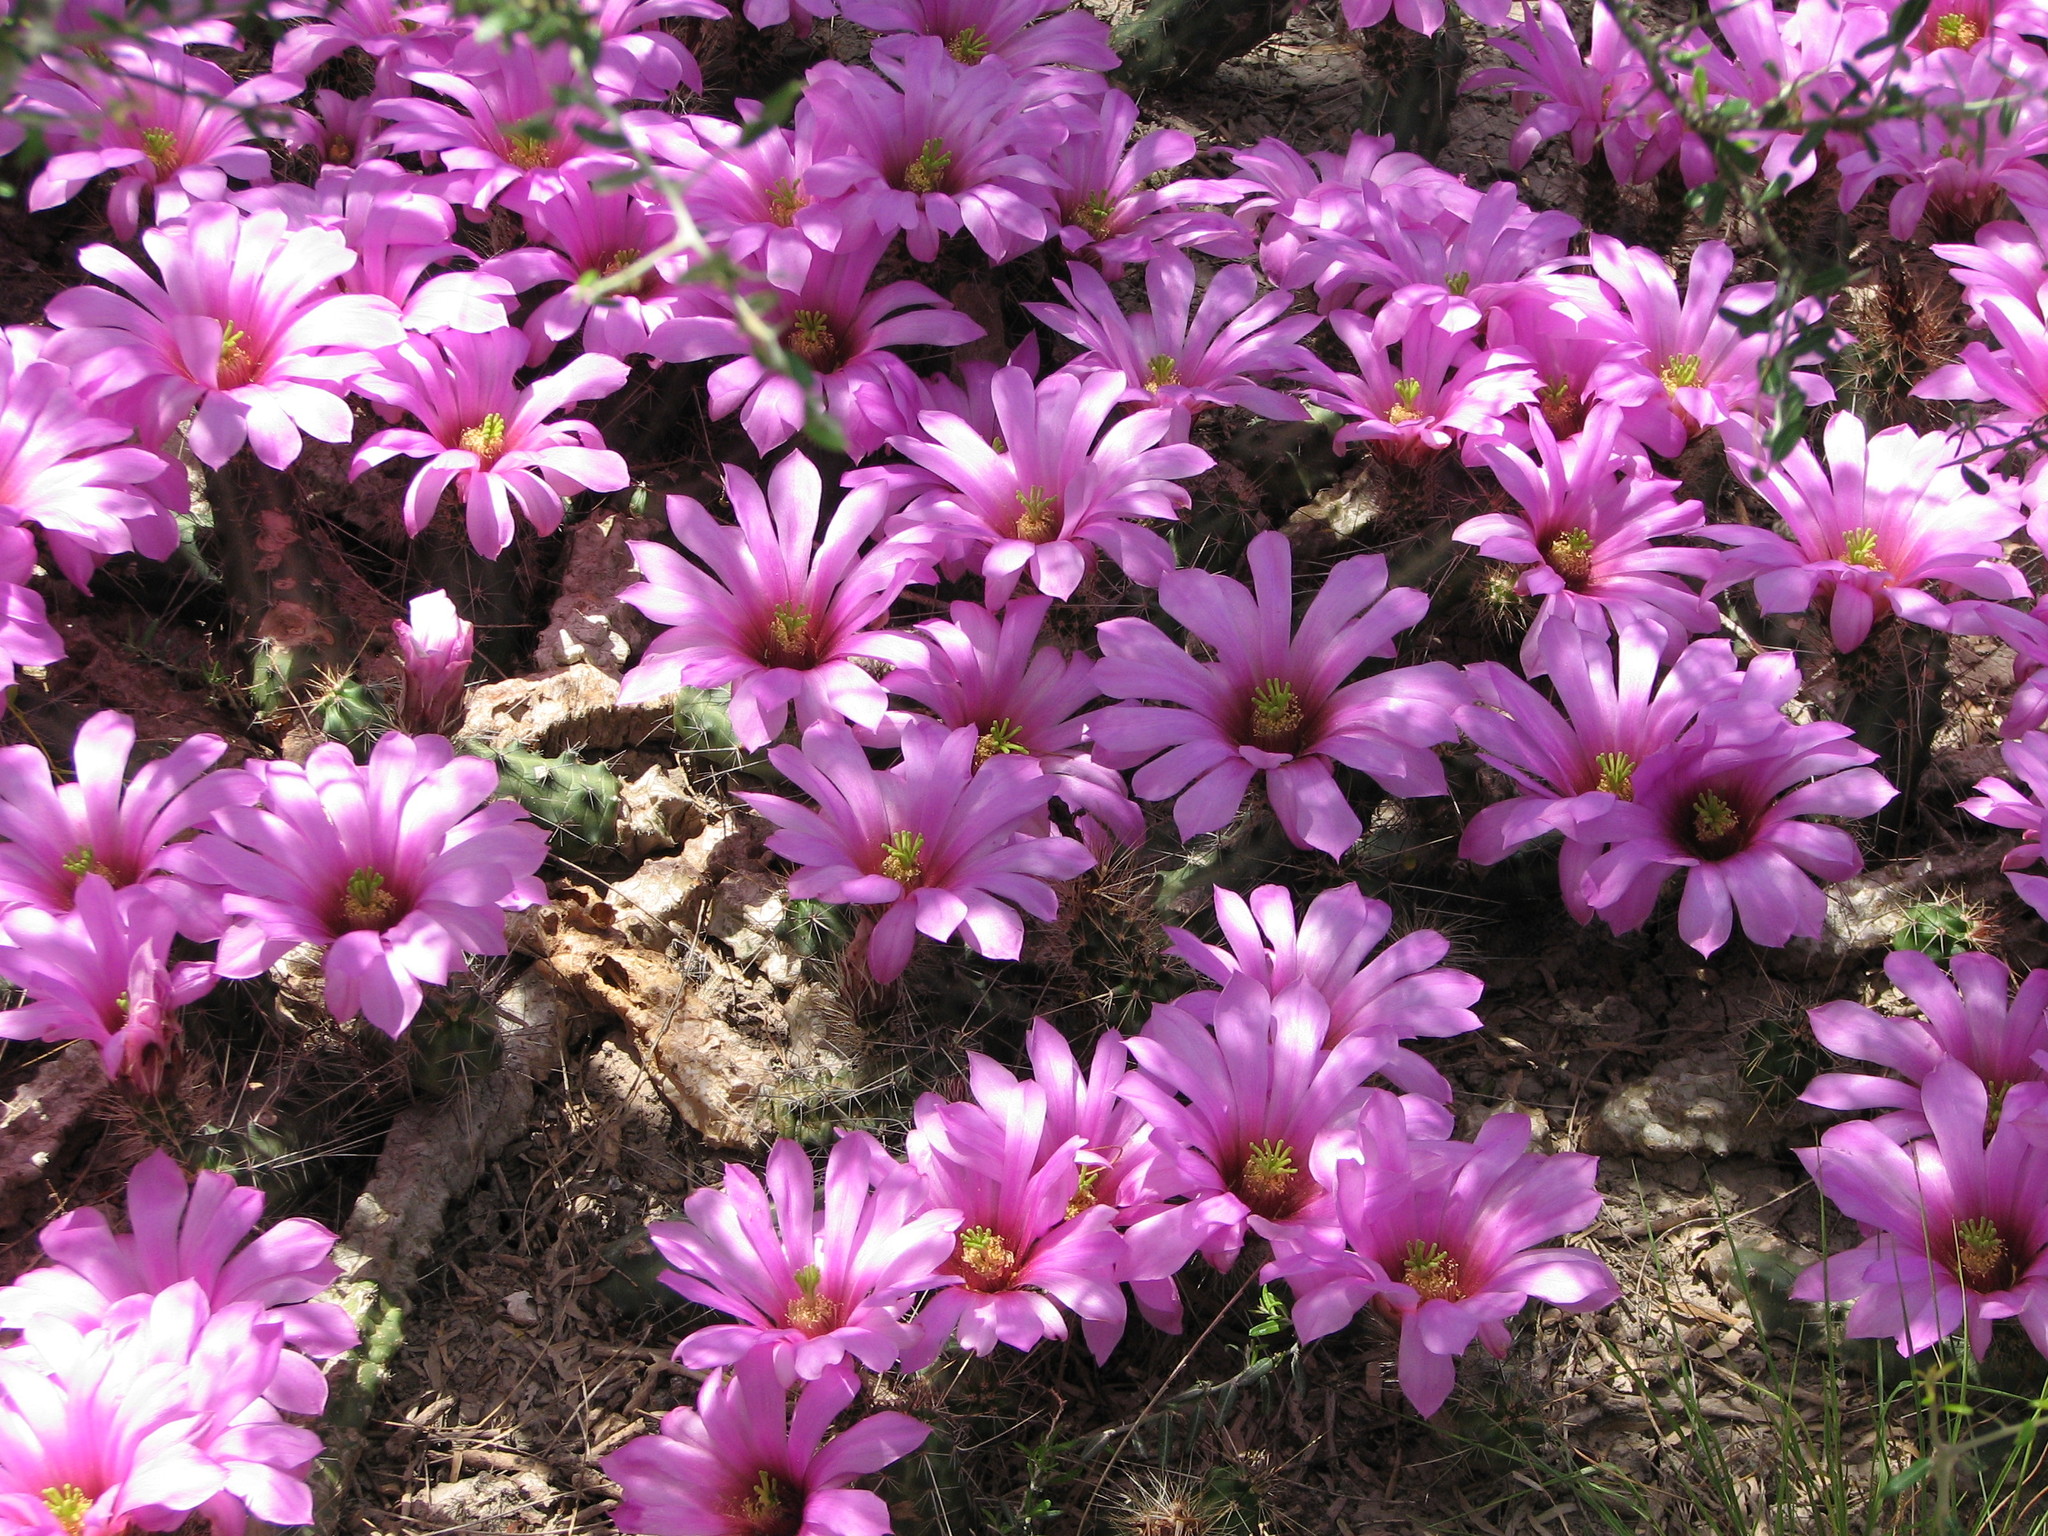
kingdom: Plantae
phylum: Tracheophyta
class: Magnoliopsida
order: Caryophyllales
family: Cactaceae
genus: Echinocereus
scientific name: Echinocereus berlandieri
